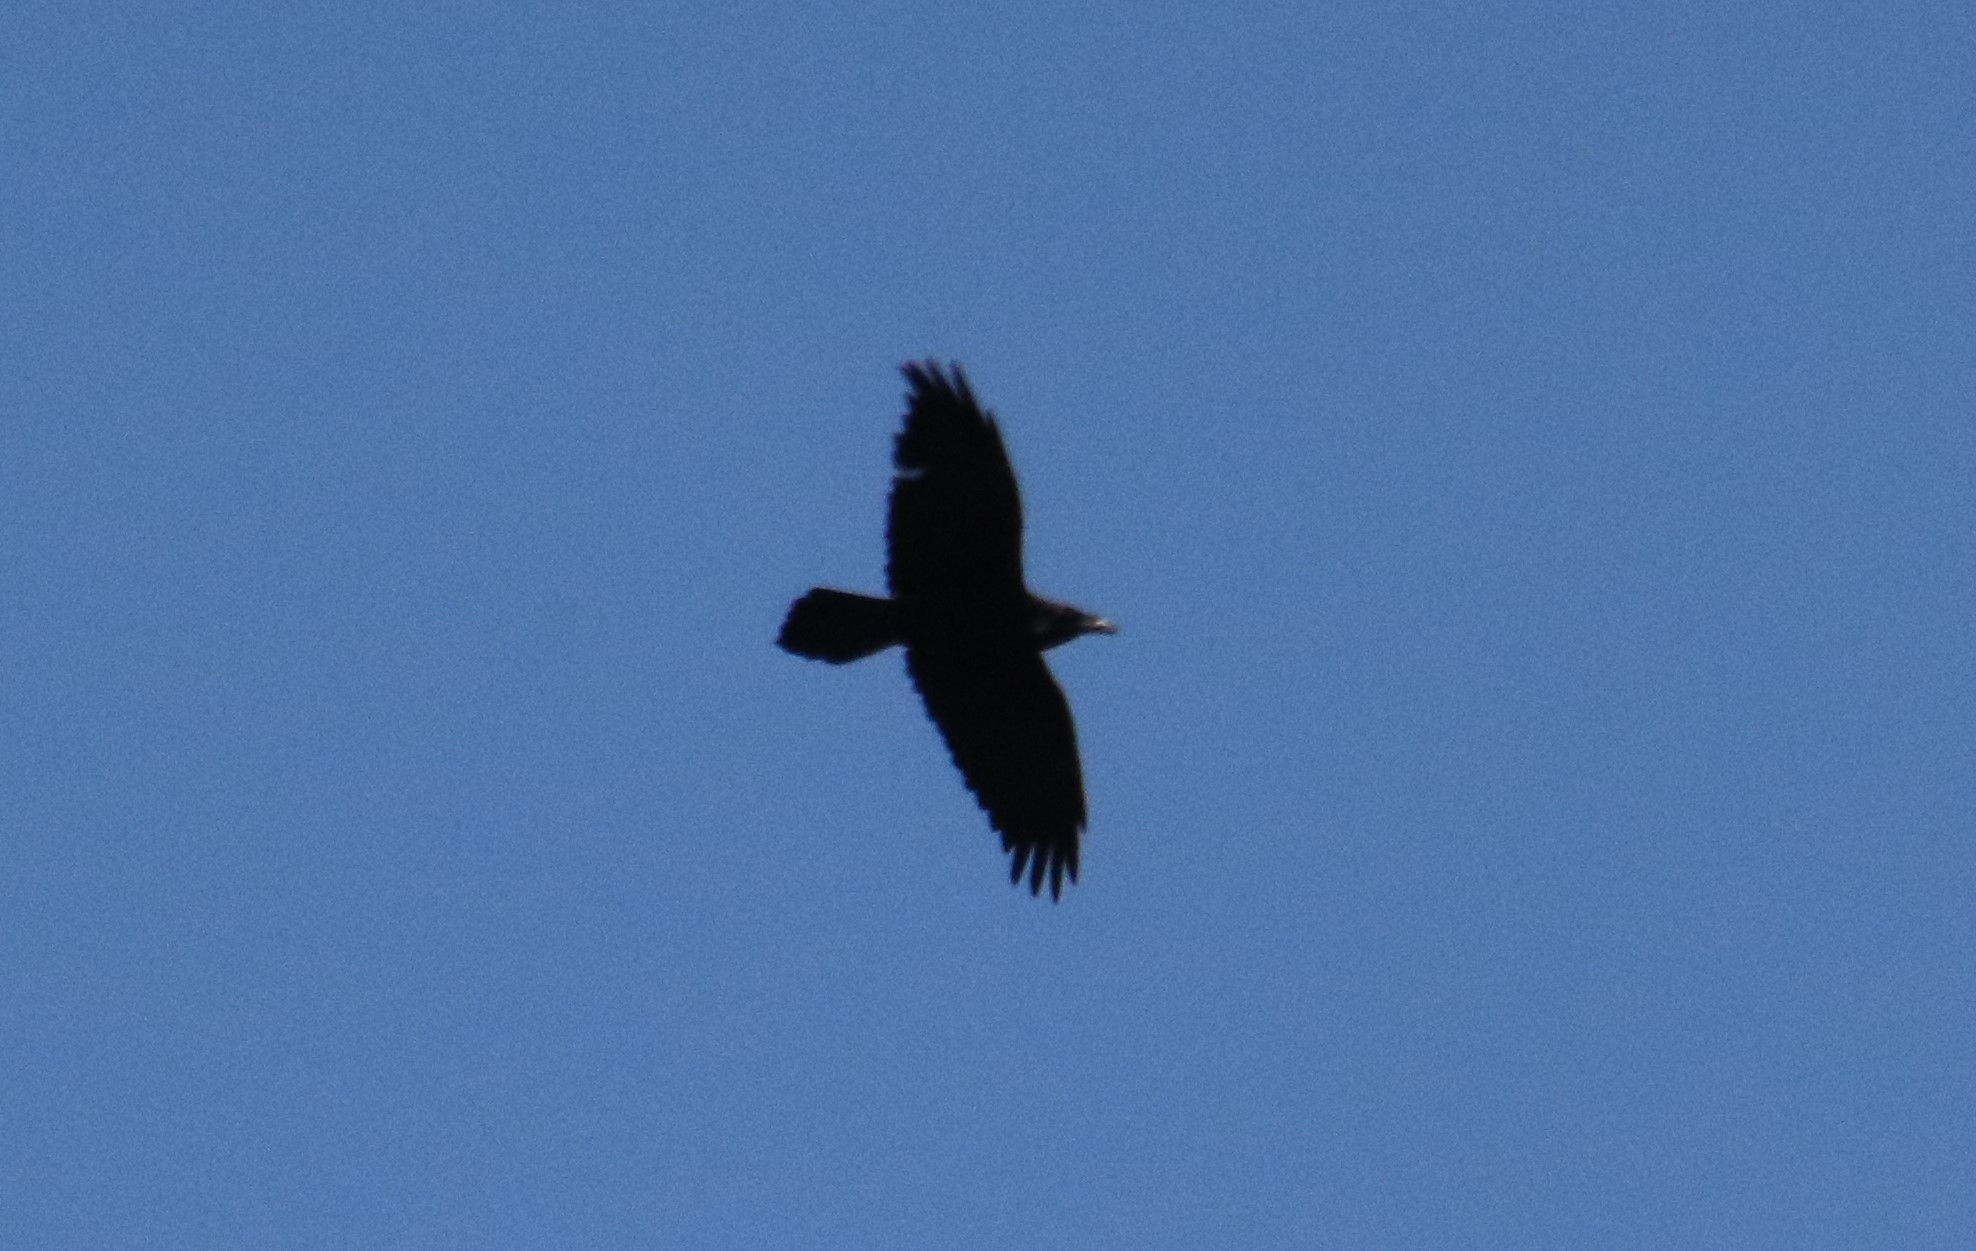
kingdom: Animalia
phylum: Chordata
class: Aves
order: Passeriformes
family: Corvidae
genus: Corvus
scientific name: Corvus corax
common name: Common raven
